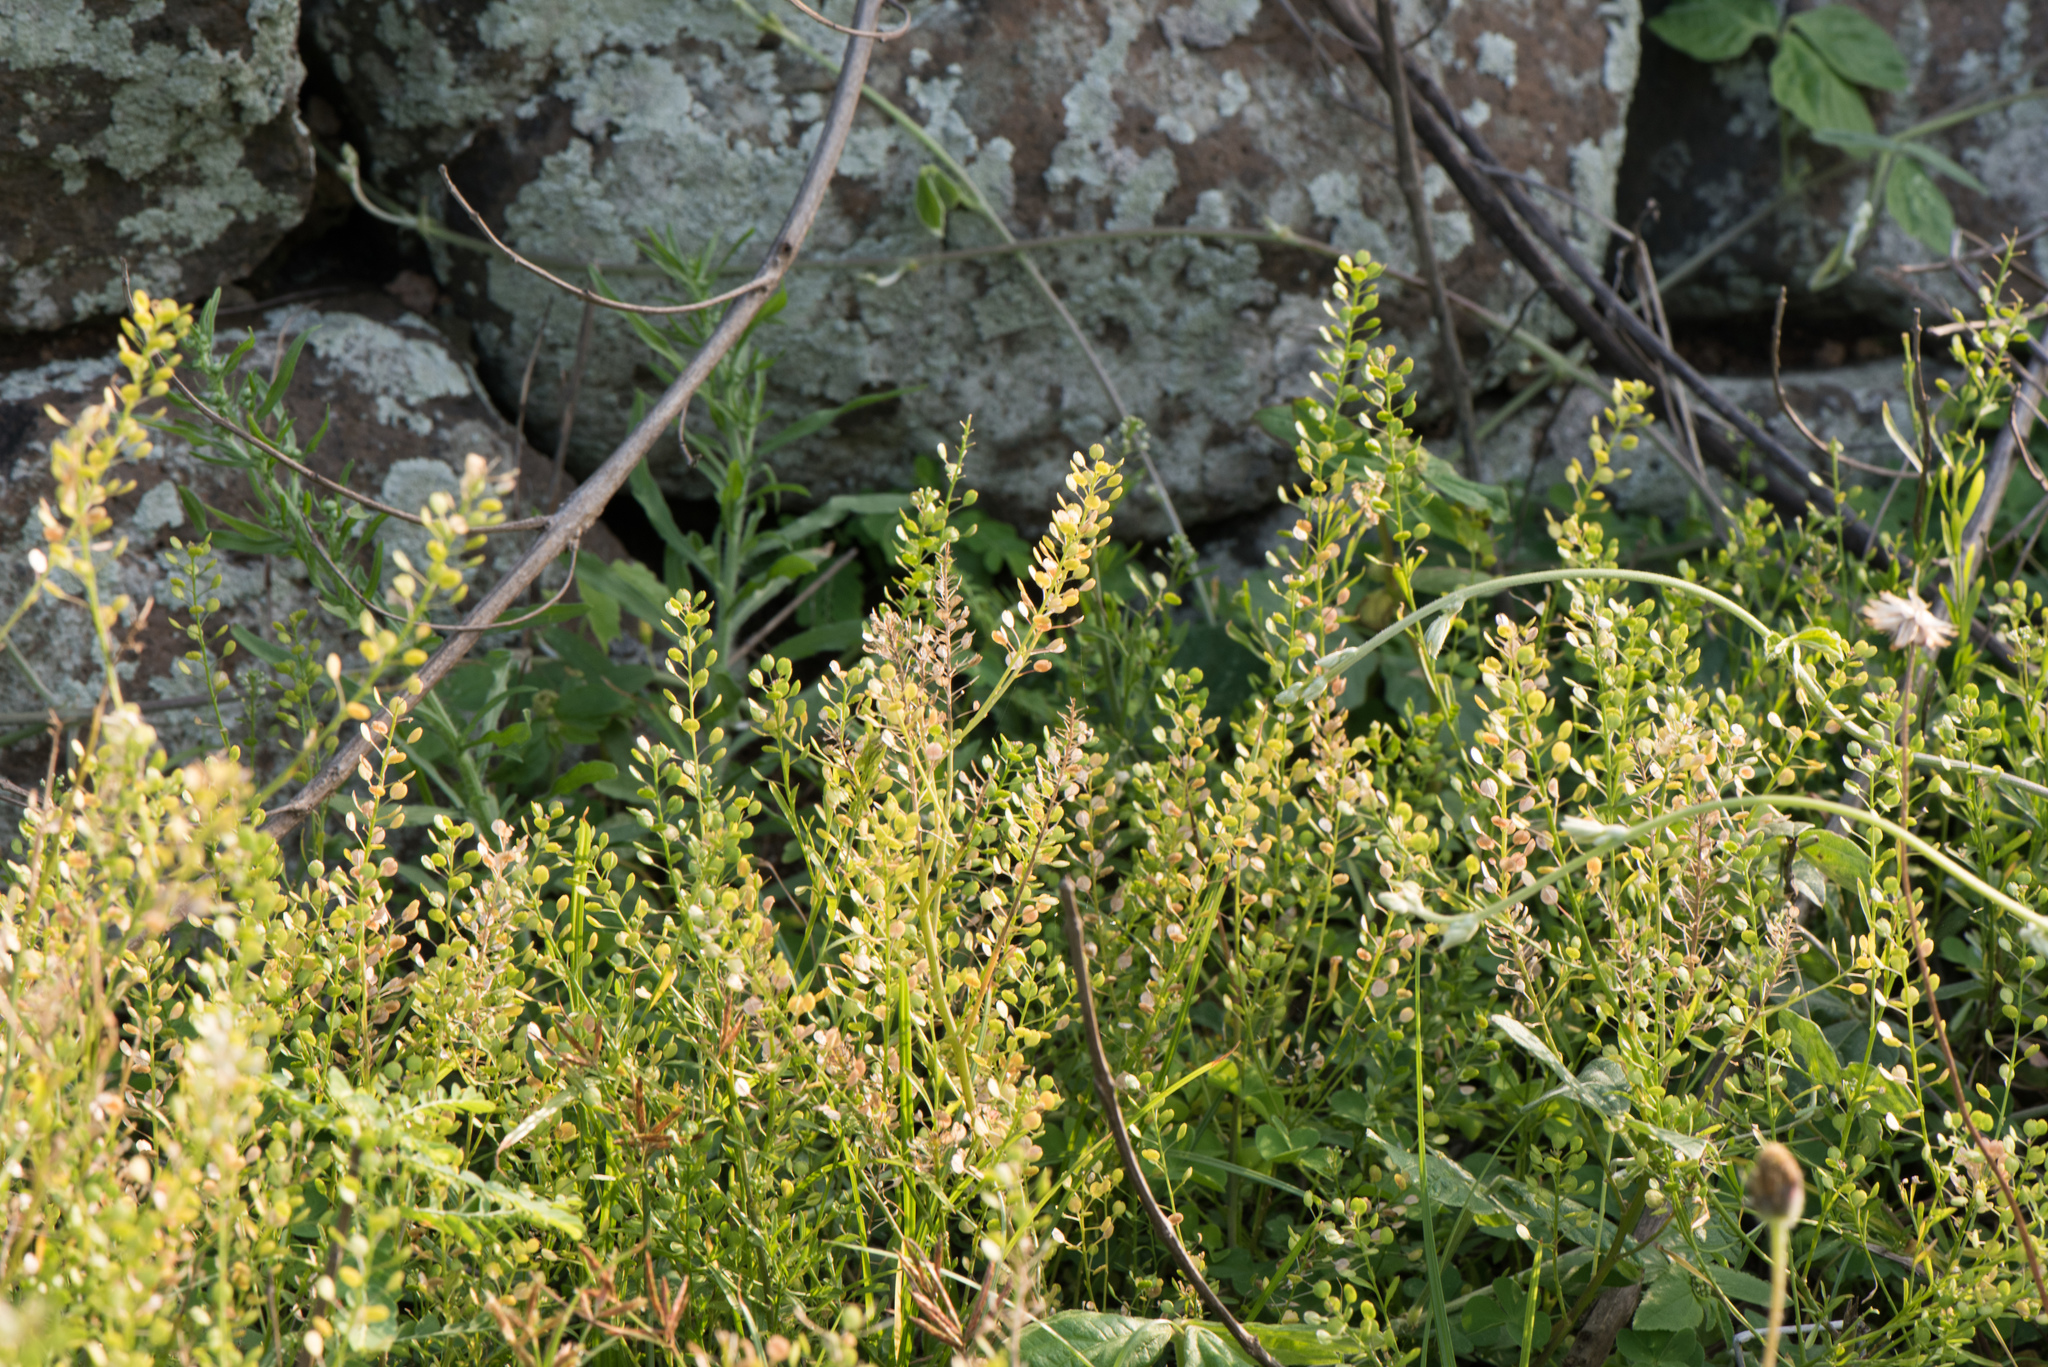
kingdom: Plantae
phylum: Tracheophyta
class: Magnoliopsida
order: Brassicales
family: Brassicaceae
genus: Lepidium
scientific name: Lepidium virginicum
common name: Least pepperwort
